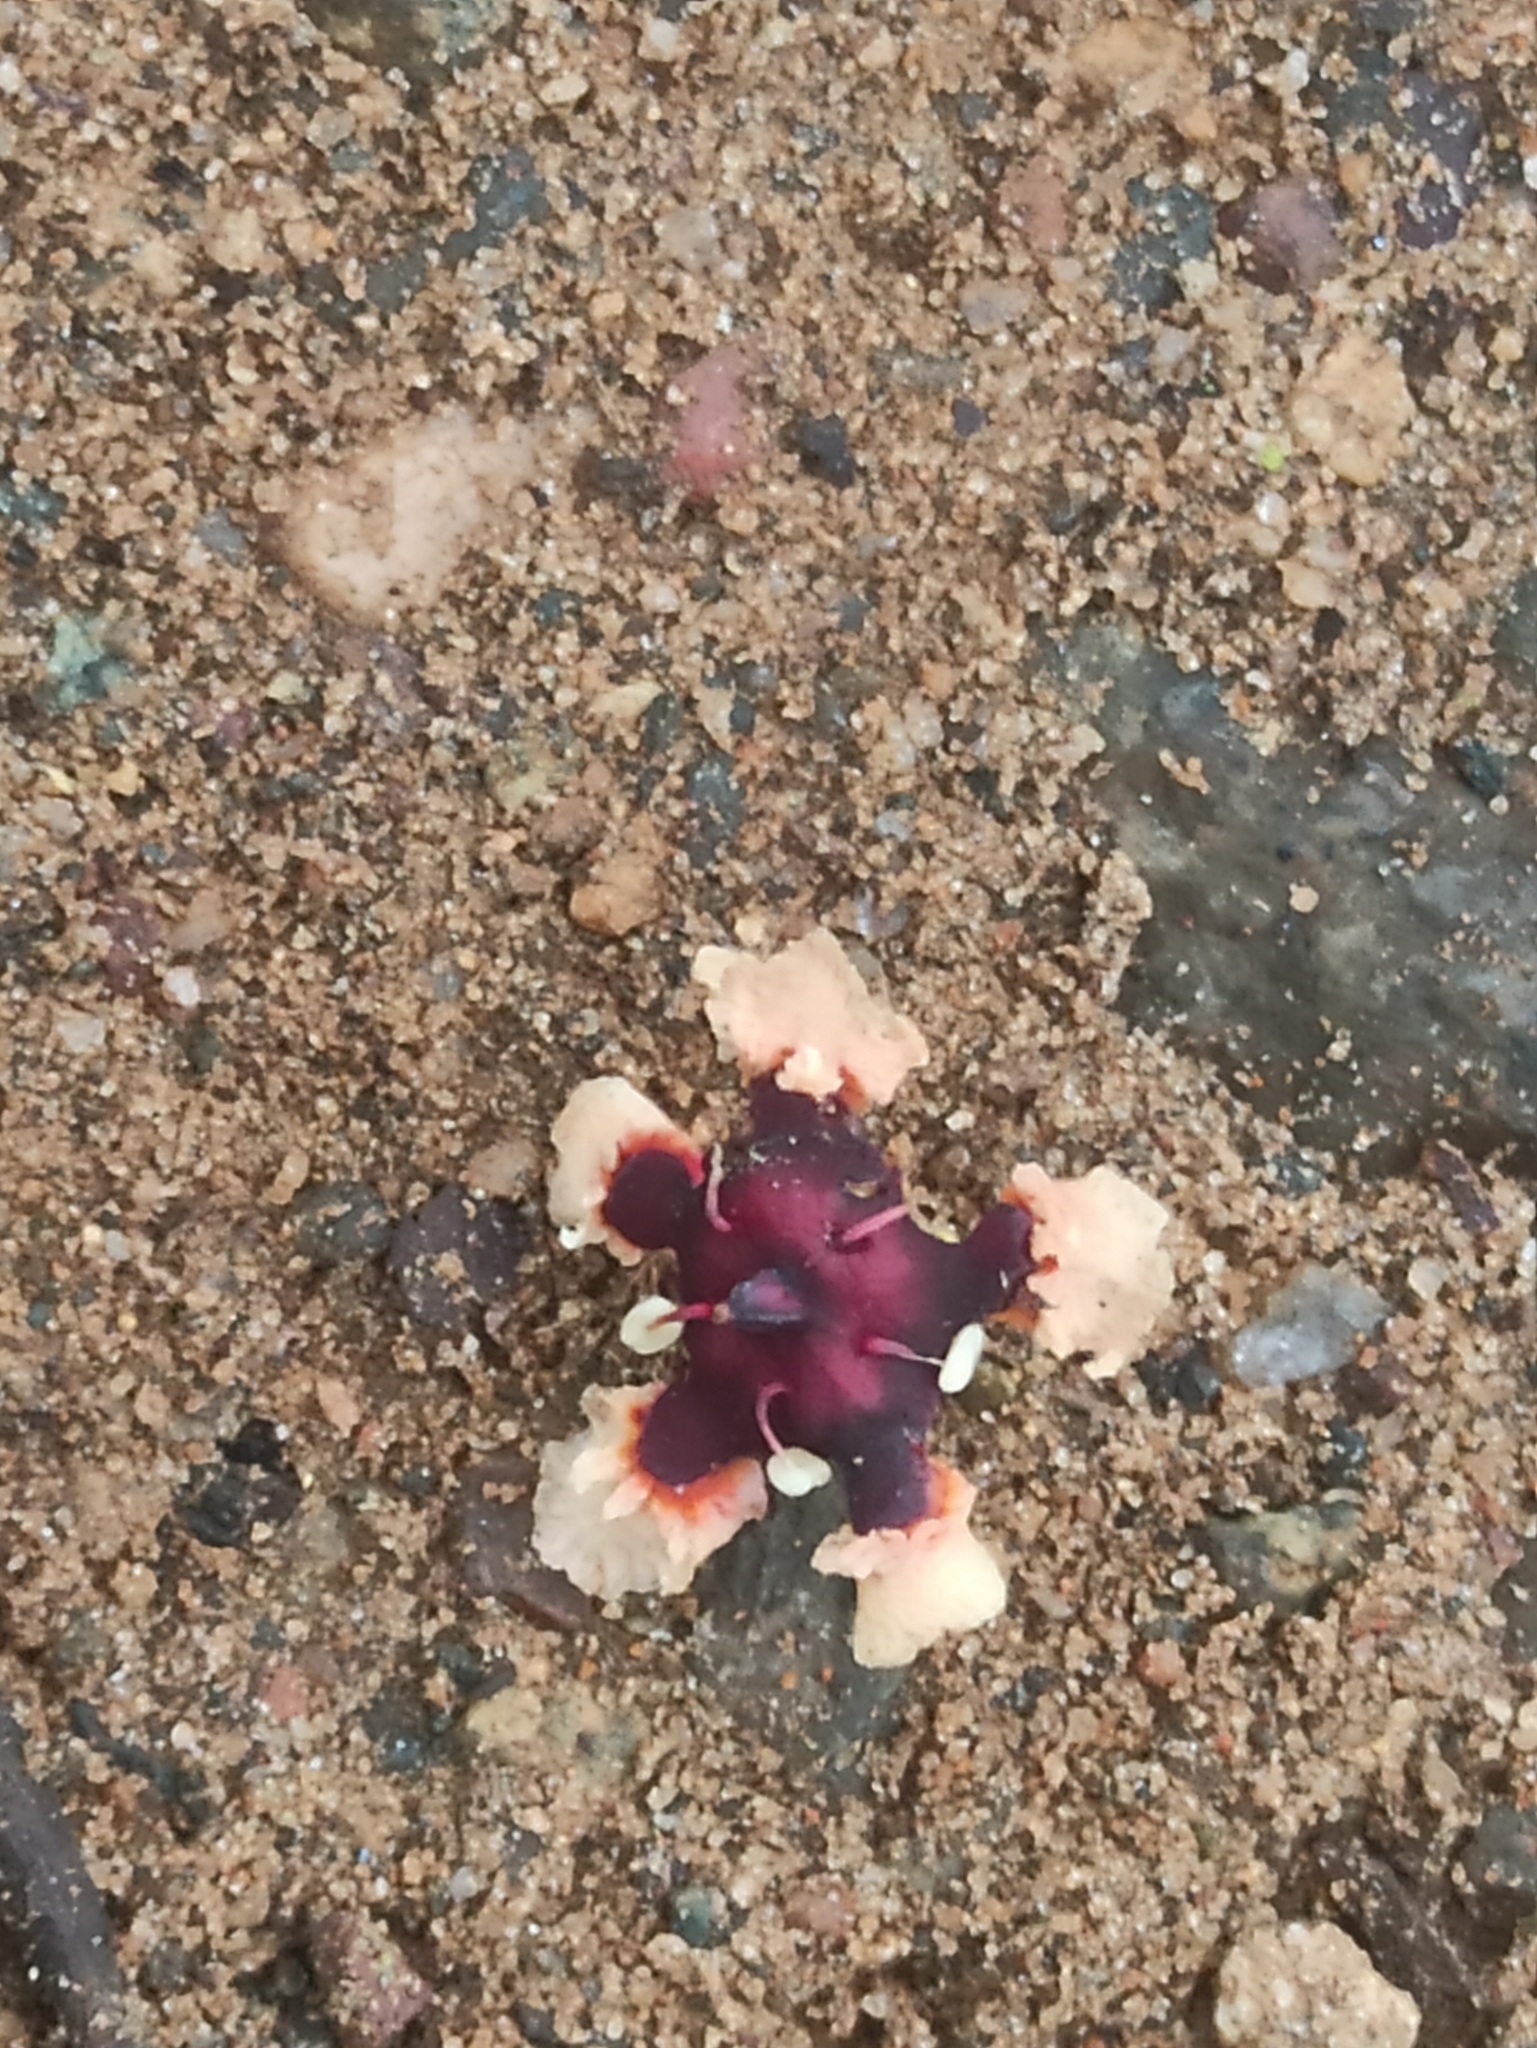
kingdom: Plantae
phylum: Tracheophyta
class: Magnoliopsida
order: Celastrales
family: Celastraceae
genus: Lophopetalum
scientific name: Lophopetalum wightianum
